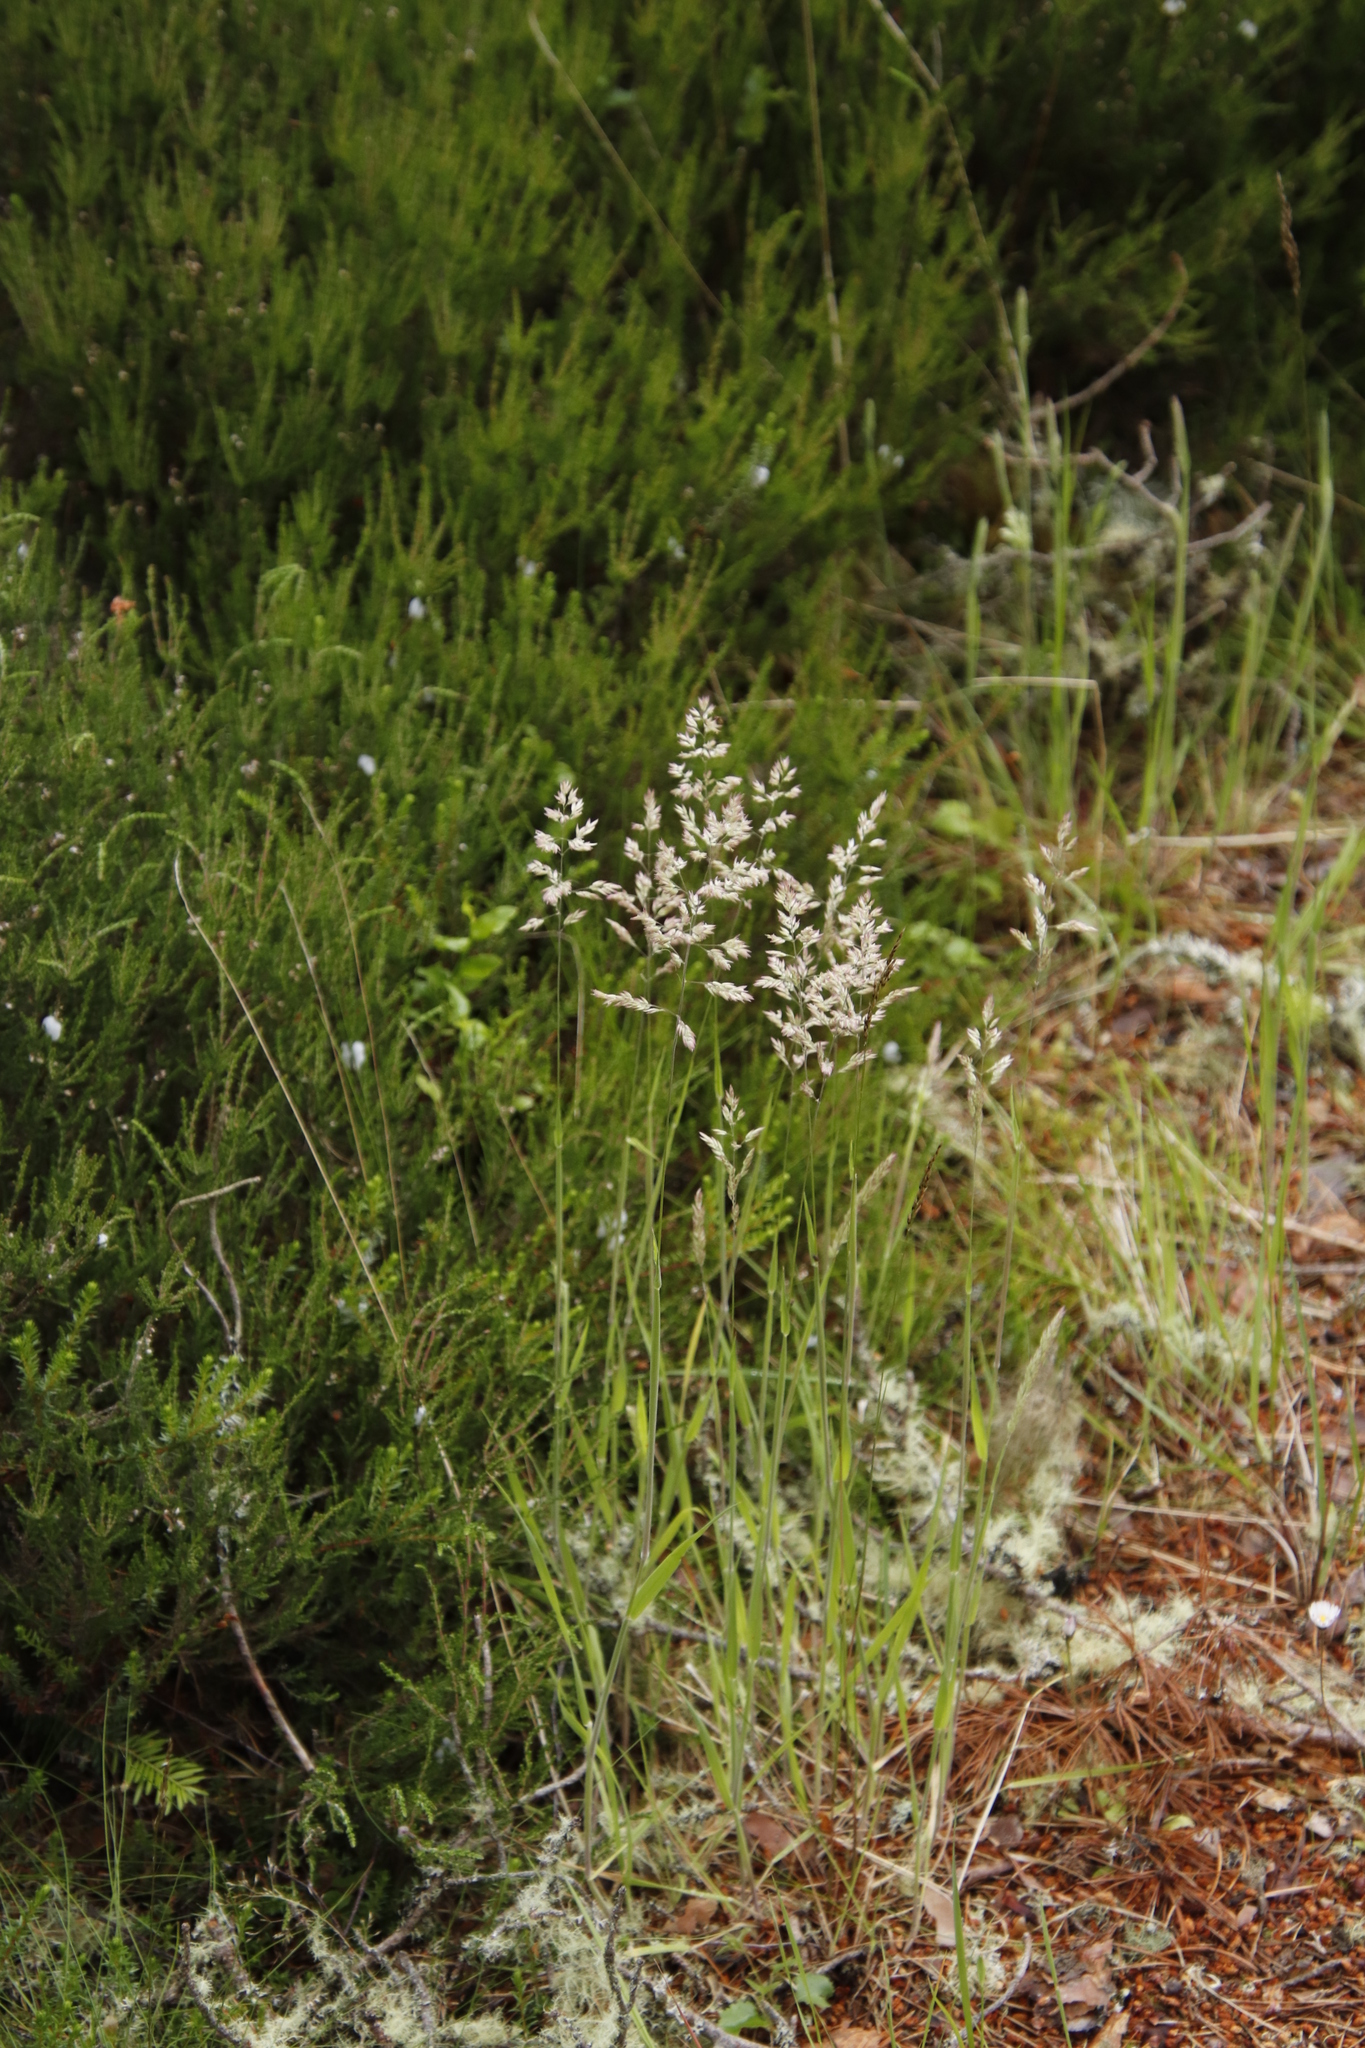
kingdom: Plantae
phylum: Tracheophyta
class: Liliopsida
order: Poales
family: Poaceae
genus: Holcus
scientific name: Holcus lanatus
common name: Yorkshire-fog
